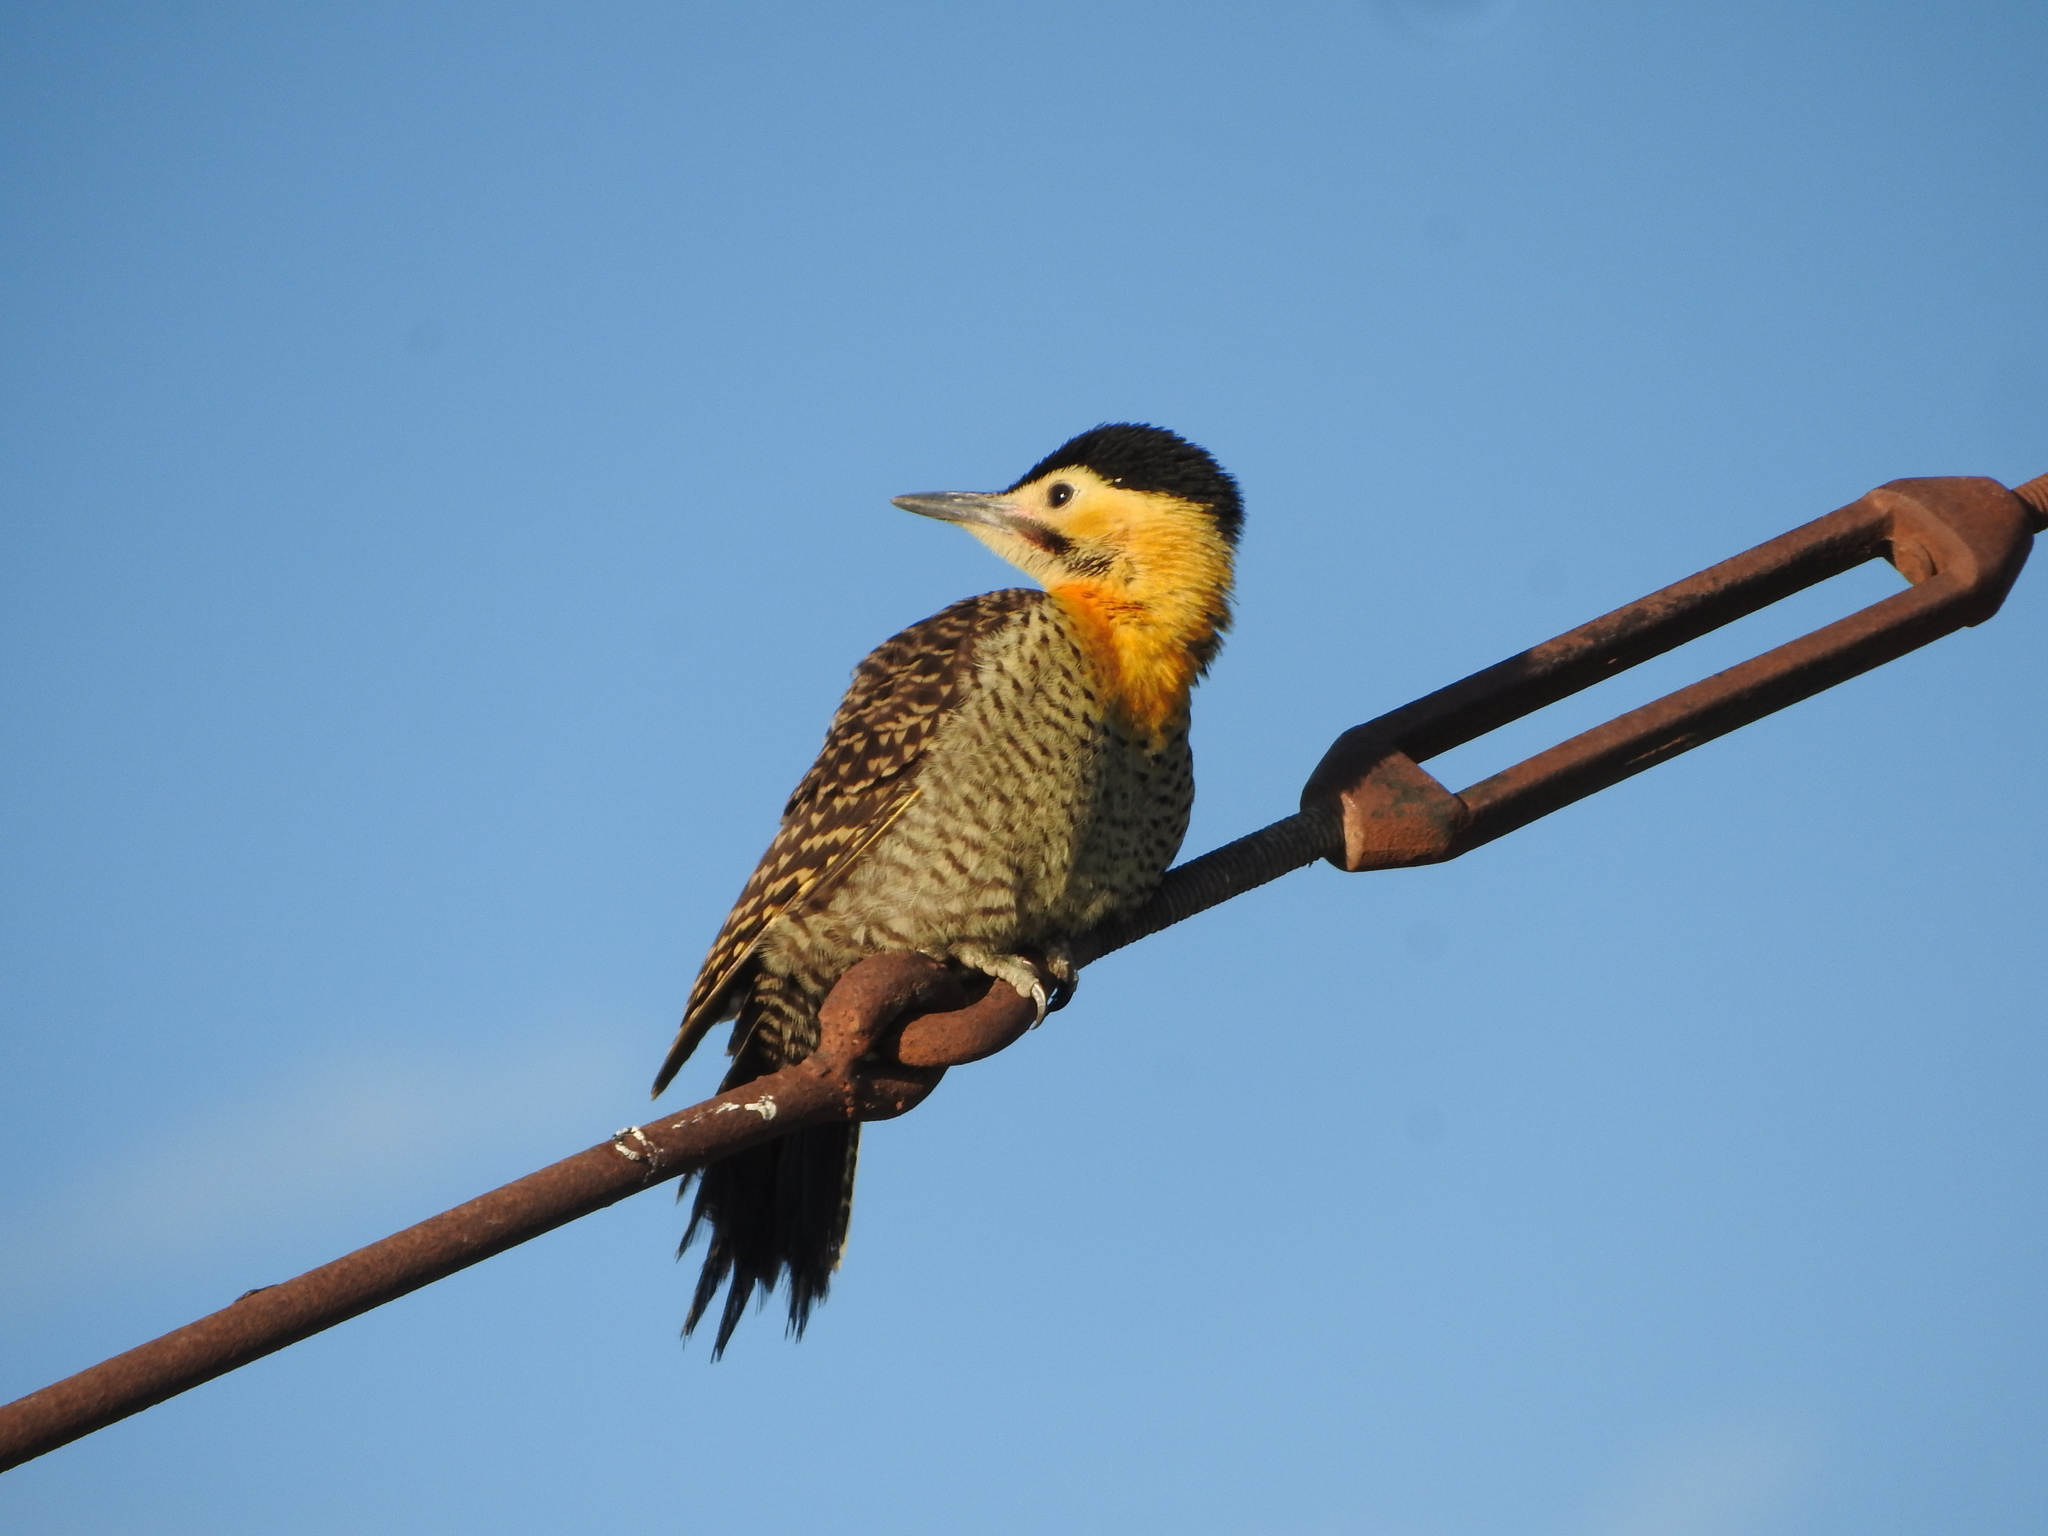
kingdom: Animalia
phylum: Chordata
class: Aves
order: Piciformes
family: Picidae
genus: Colaptes
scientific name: Colaptes campestris
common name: Campo flicker
